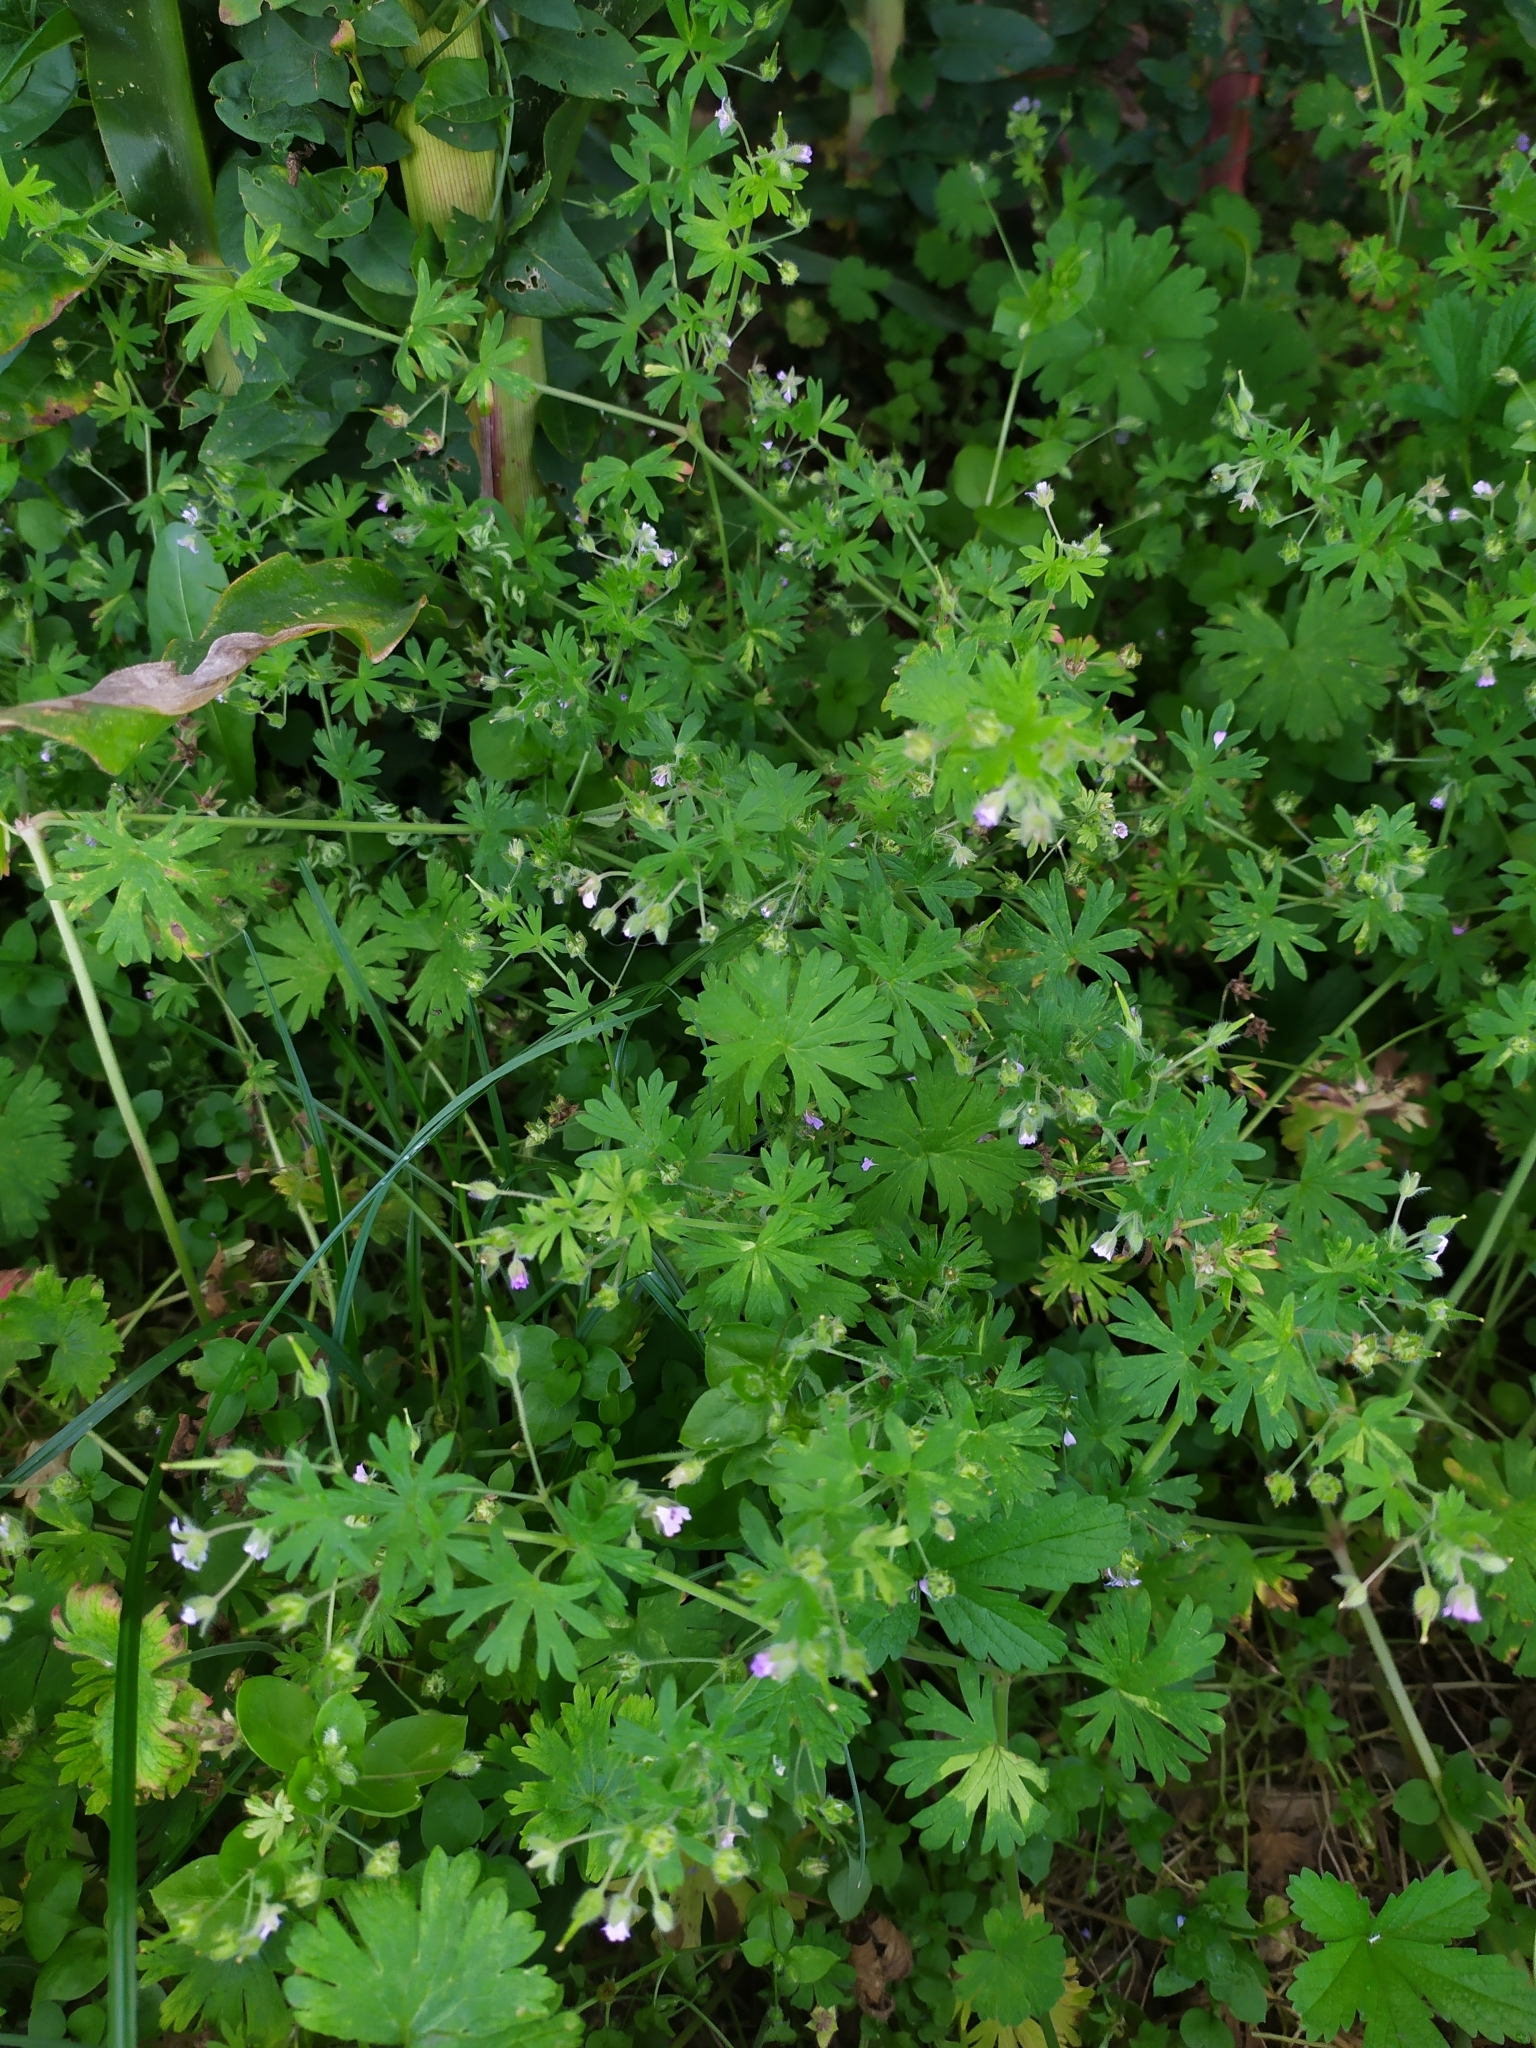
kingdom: Plantae
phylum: Tracheophyta
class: Magnoliopsida
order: Geraniales
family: Geraniaceae
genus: Geranium
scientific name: Geranium pusillum
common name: Small geranium
